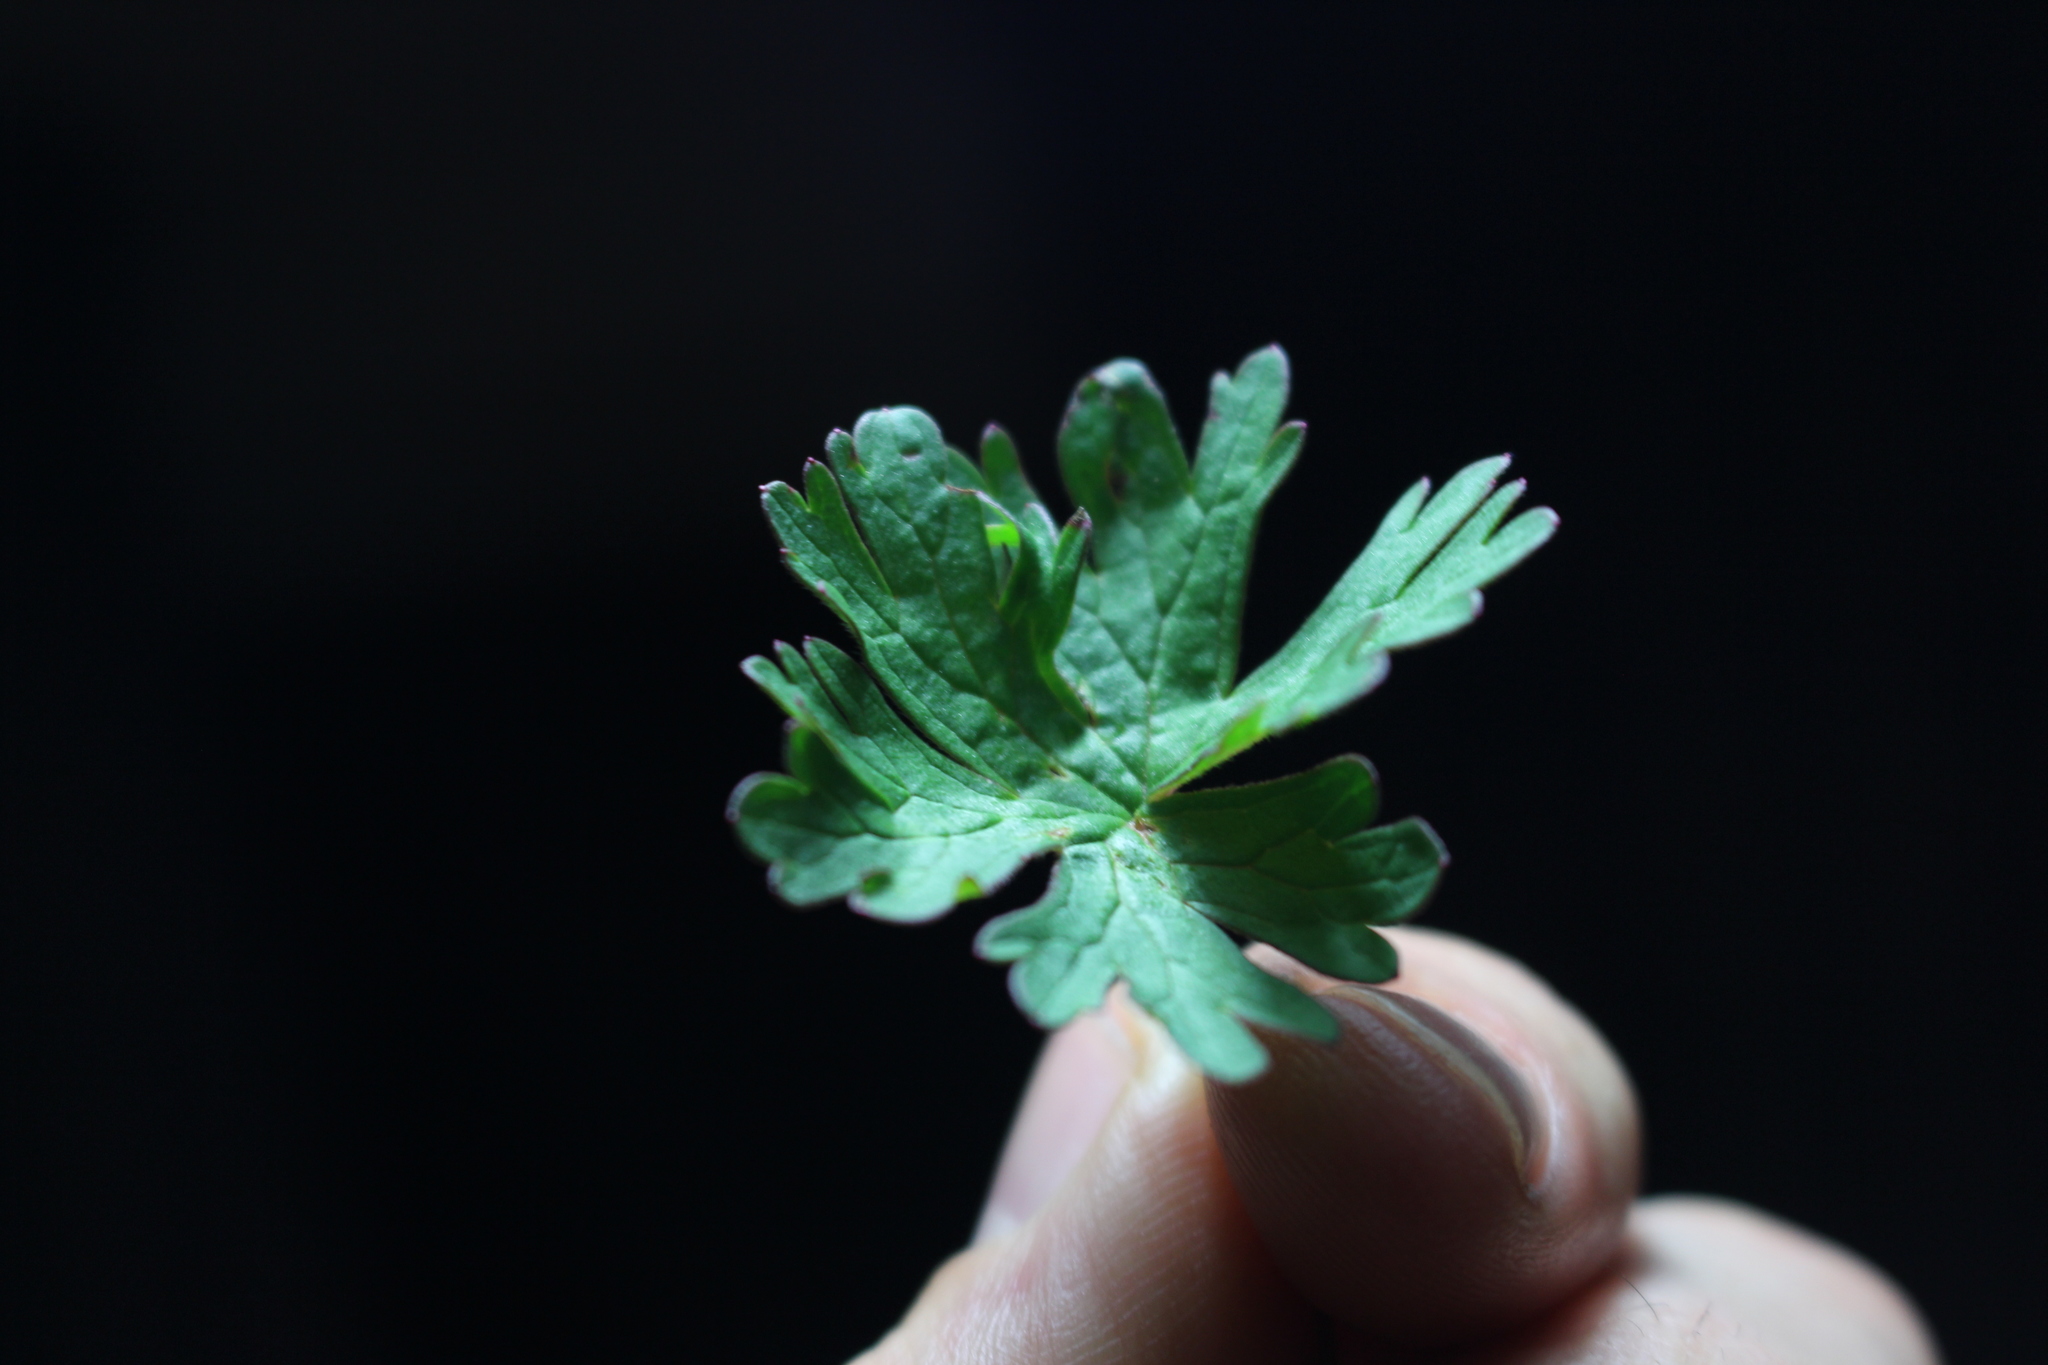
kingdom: Plantae
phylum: Tracheophyta
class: Magnoliopsida
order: Geraniales
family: Geraniaceae
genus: Geranium
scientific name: Geranium retrorsum
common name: New zealand geranium
